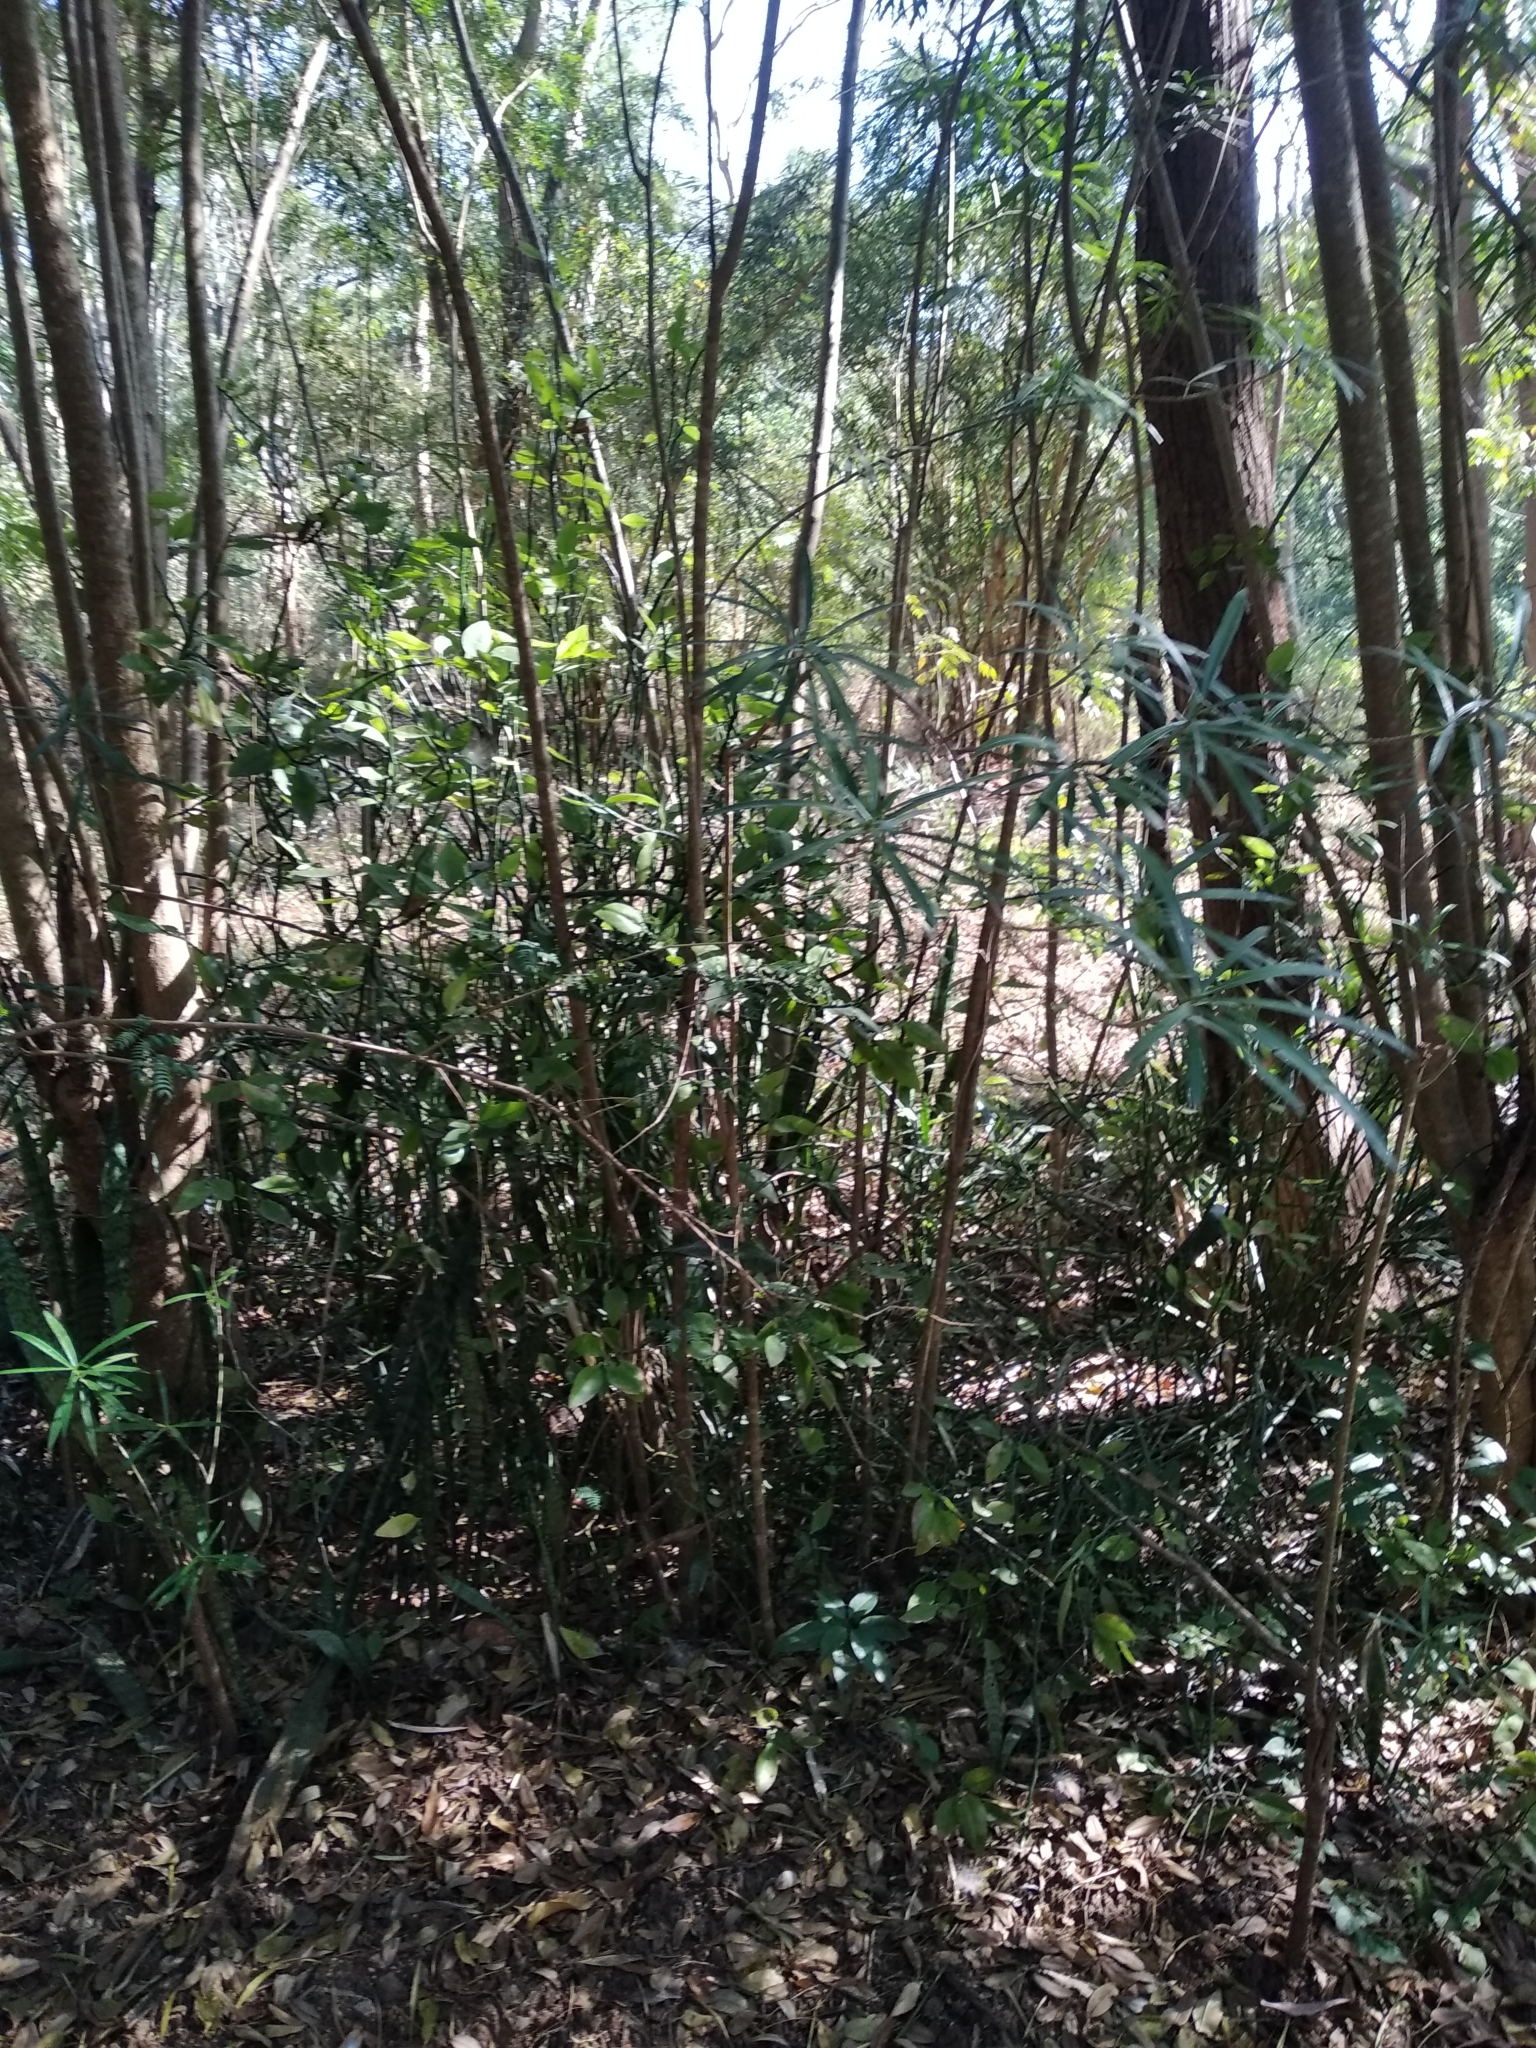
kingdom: Plantae
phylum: Tracheophyta
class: Magnoliopsida
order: Gentianales
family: Apocynaceae
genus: Cascabela
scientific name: Cascabela thevetia
